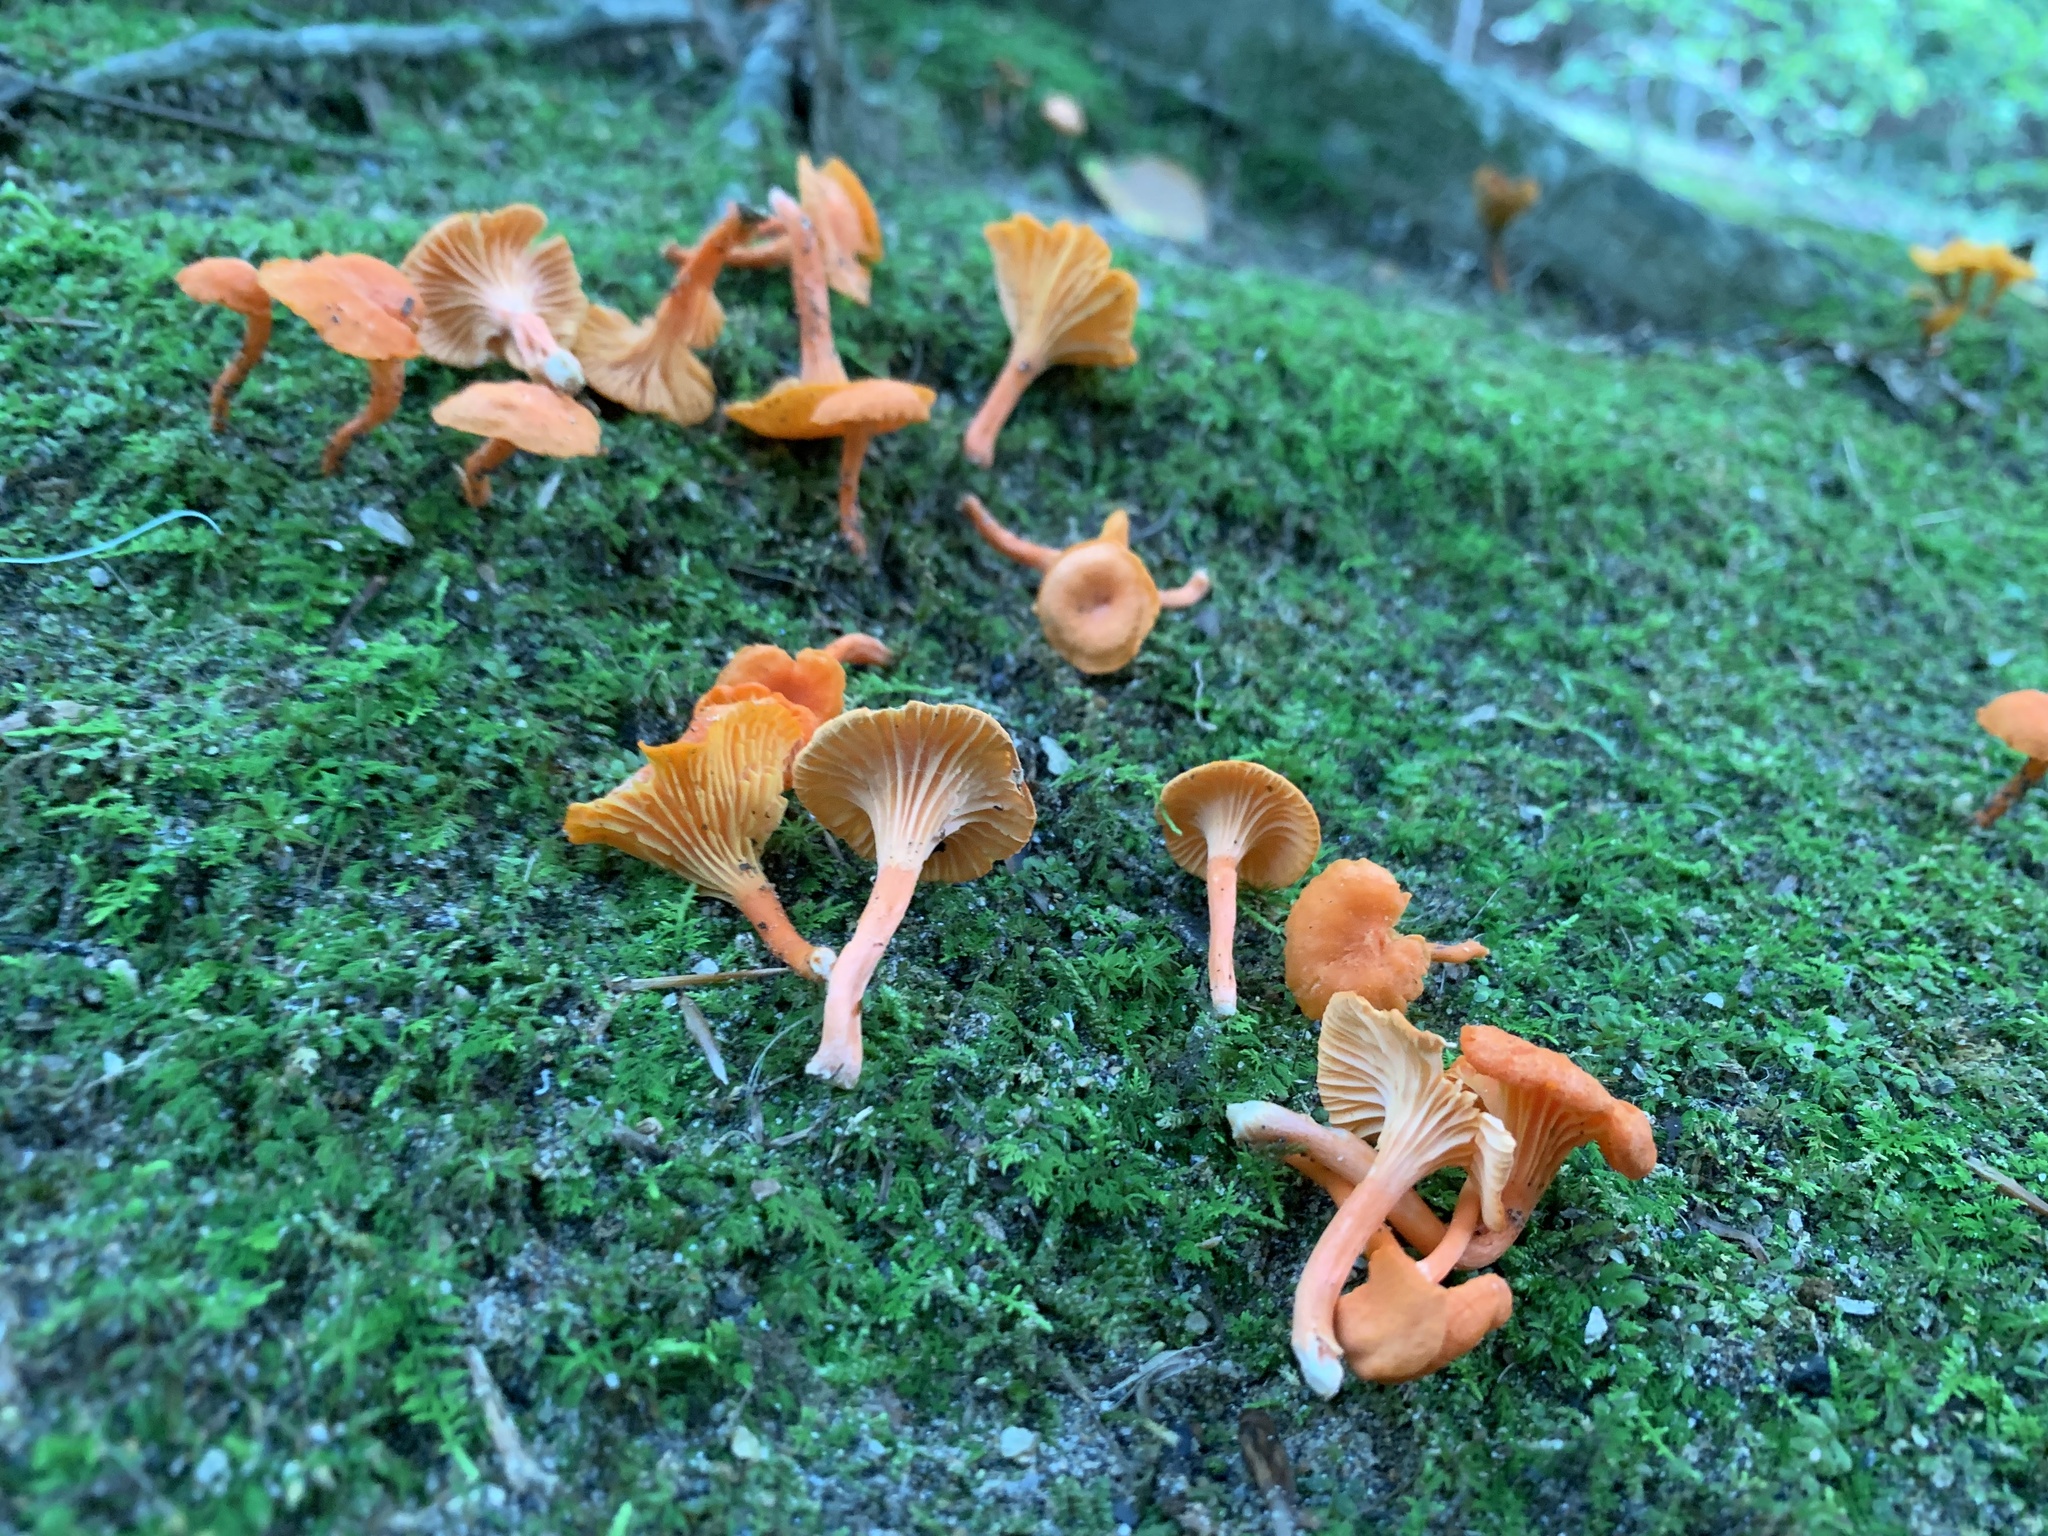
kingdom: Fungi
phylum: Basidiomycota
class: Agaricomycetes
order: Cantharellales
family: Hydnaceae
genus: Cantharellus
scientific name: Cantharellus cinnabarinus
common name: Cinnabar chanterelle
